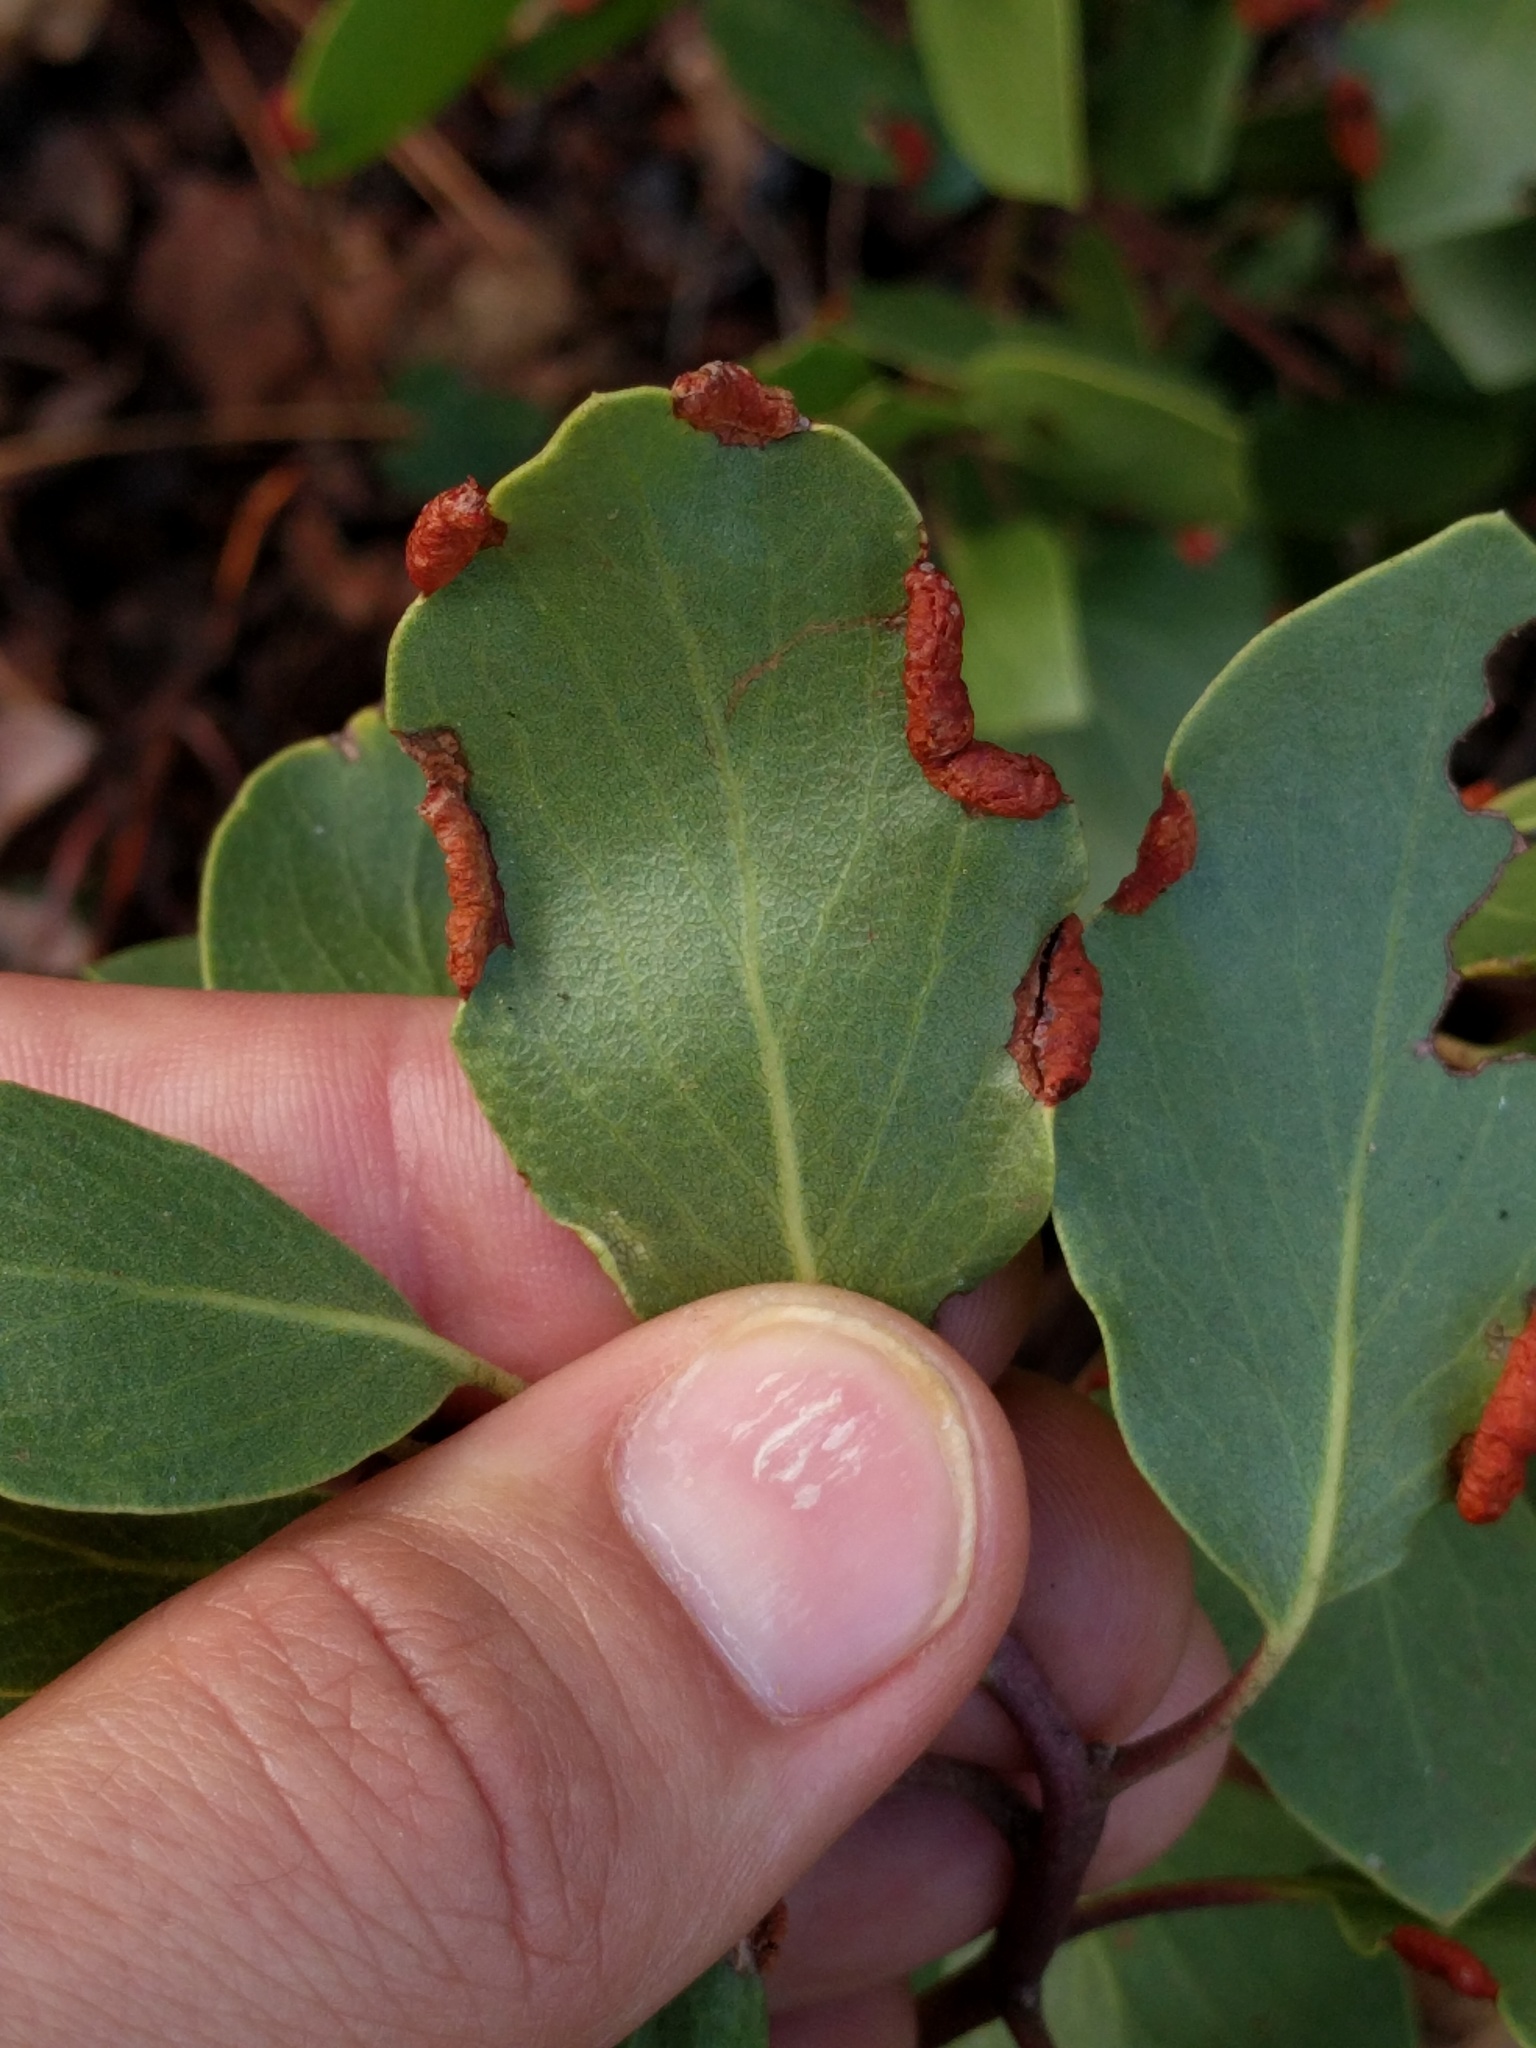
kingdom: Animalia
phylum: Arthropoda
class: Insecta
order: Hemiptera
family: Aphididae
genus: Tamalia
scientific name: Tamalia coweni
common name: Manzanita leafgall aphid
